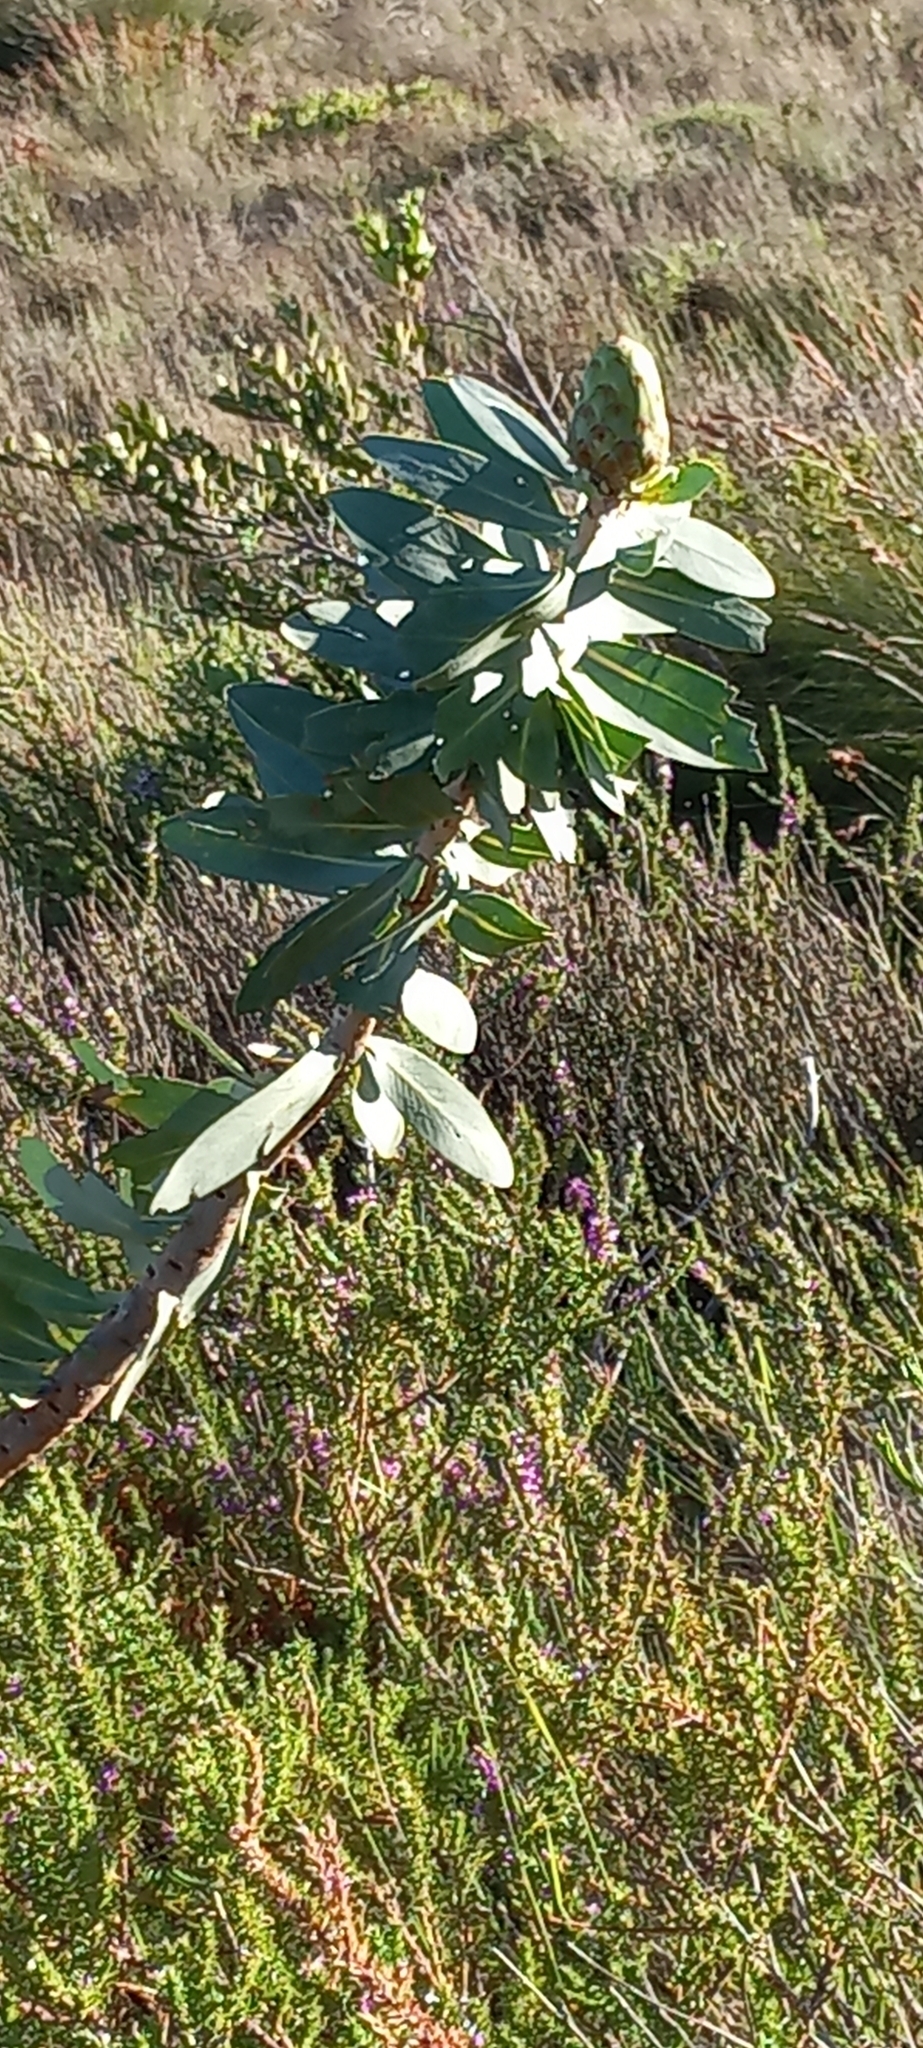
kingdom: Plantae
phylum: Tracheophyta
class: Magnoliopsida
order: Proteales
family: Proteaceae
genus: Protea
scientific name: Protea nitida
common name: Tree protea
